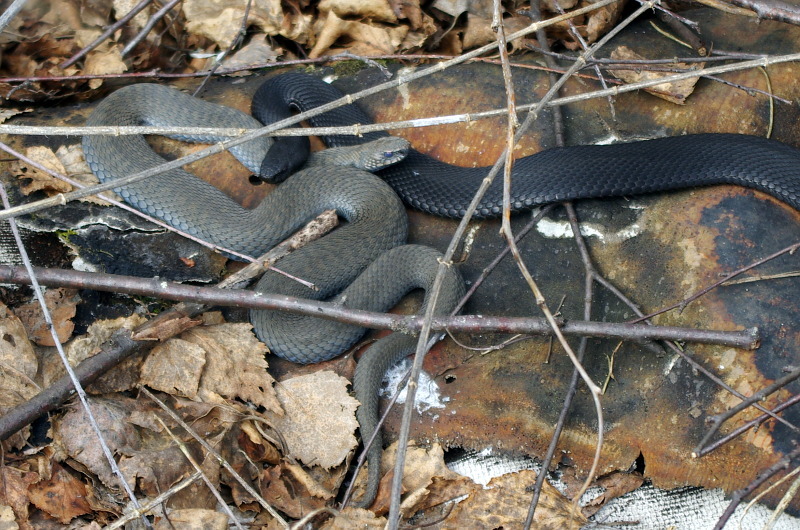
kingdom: Animalia
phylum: Chordata
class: Squamata
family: Viperidae
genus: Vipera
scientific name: Vipera berus
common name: Adder
